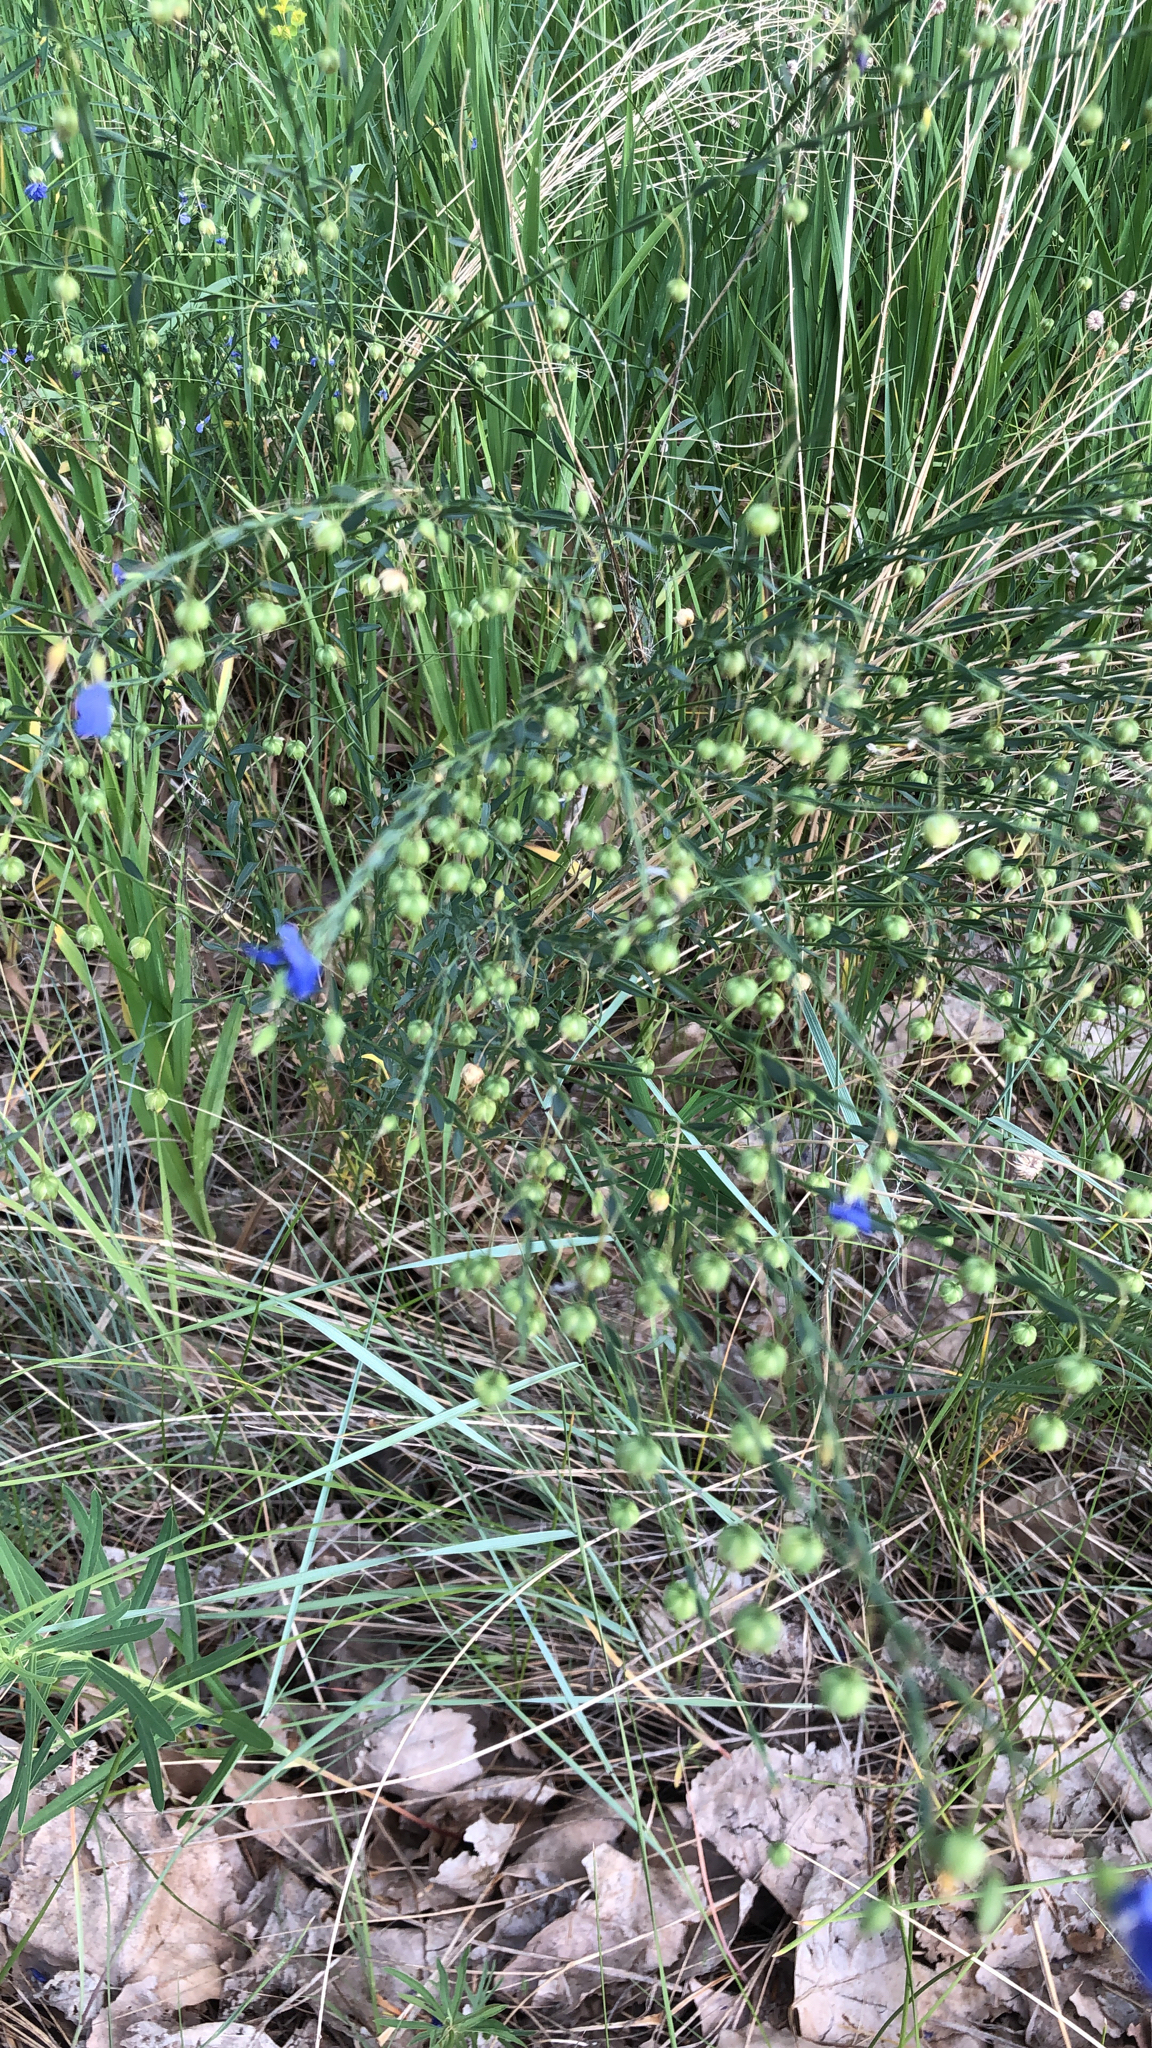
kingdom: Plantae
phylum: Tracheophyta
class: Magnoliopsida
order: Malpighiales
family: Linaceae
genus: Linum
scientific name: Linum lewisii
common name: Prairie flax
